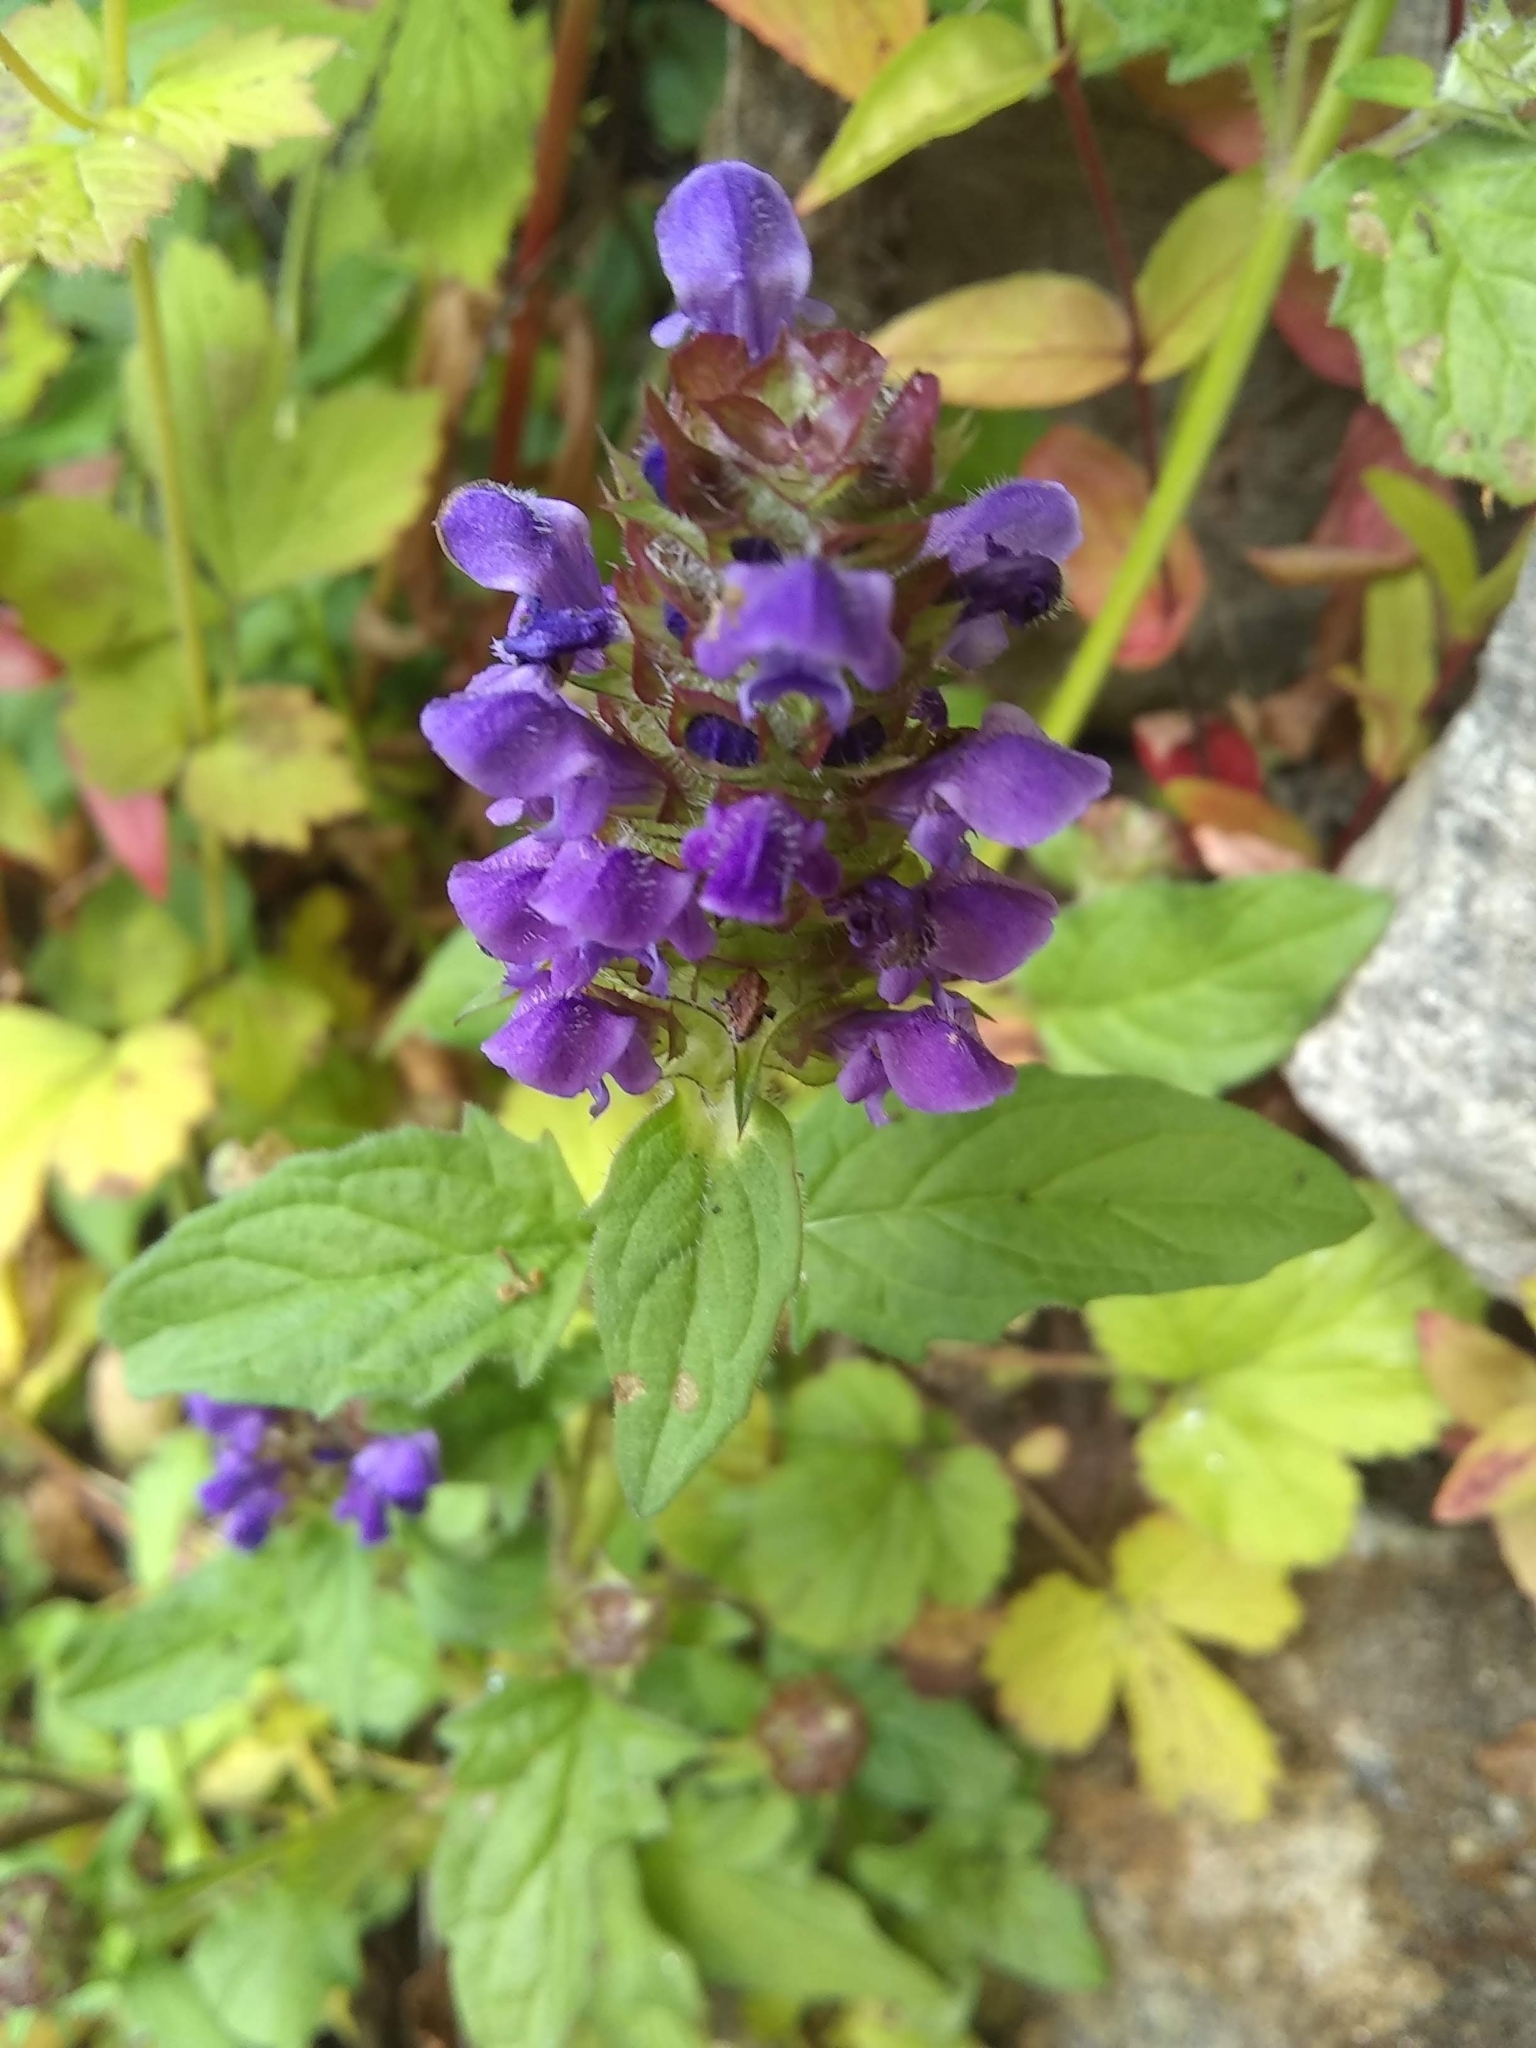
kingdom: Plantae
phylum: Tracheophyta
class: Magnoliopsida
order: Lamiales
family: Lamiaceae
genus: Prunella
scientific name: Prunella vulgaris
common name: Heal-all
